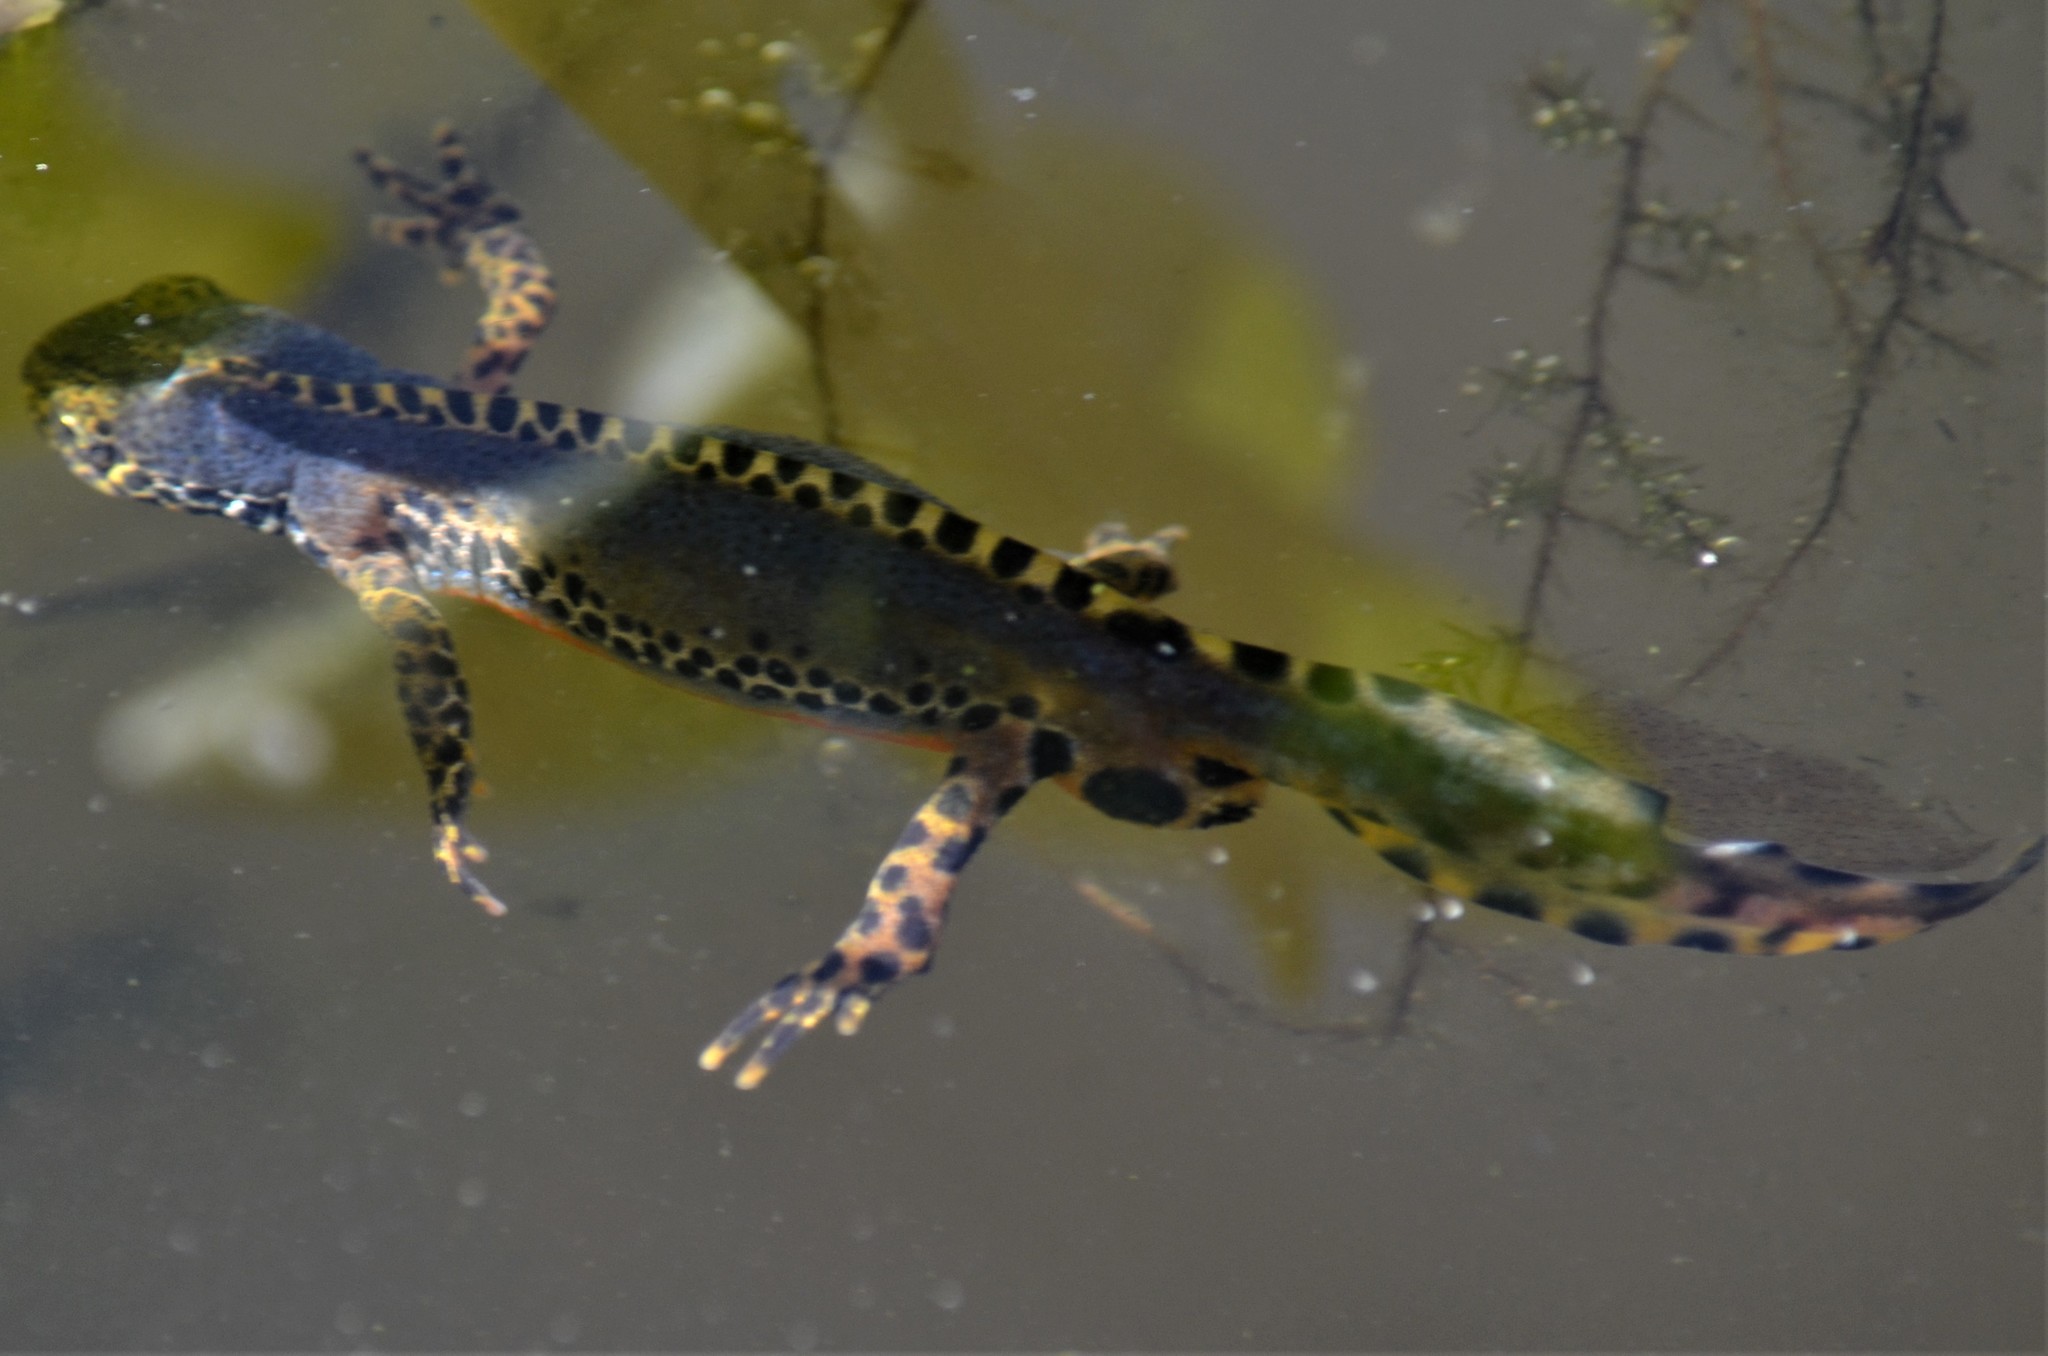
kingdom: Animalia
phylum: Chordata
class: Amphibia
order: Caudata
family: Salamandridae
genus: Ichthyosaura
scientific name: Ichthyosaura alpestris
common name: Alpine newt
